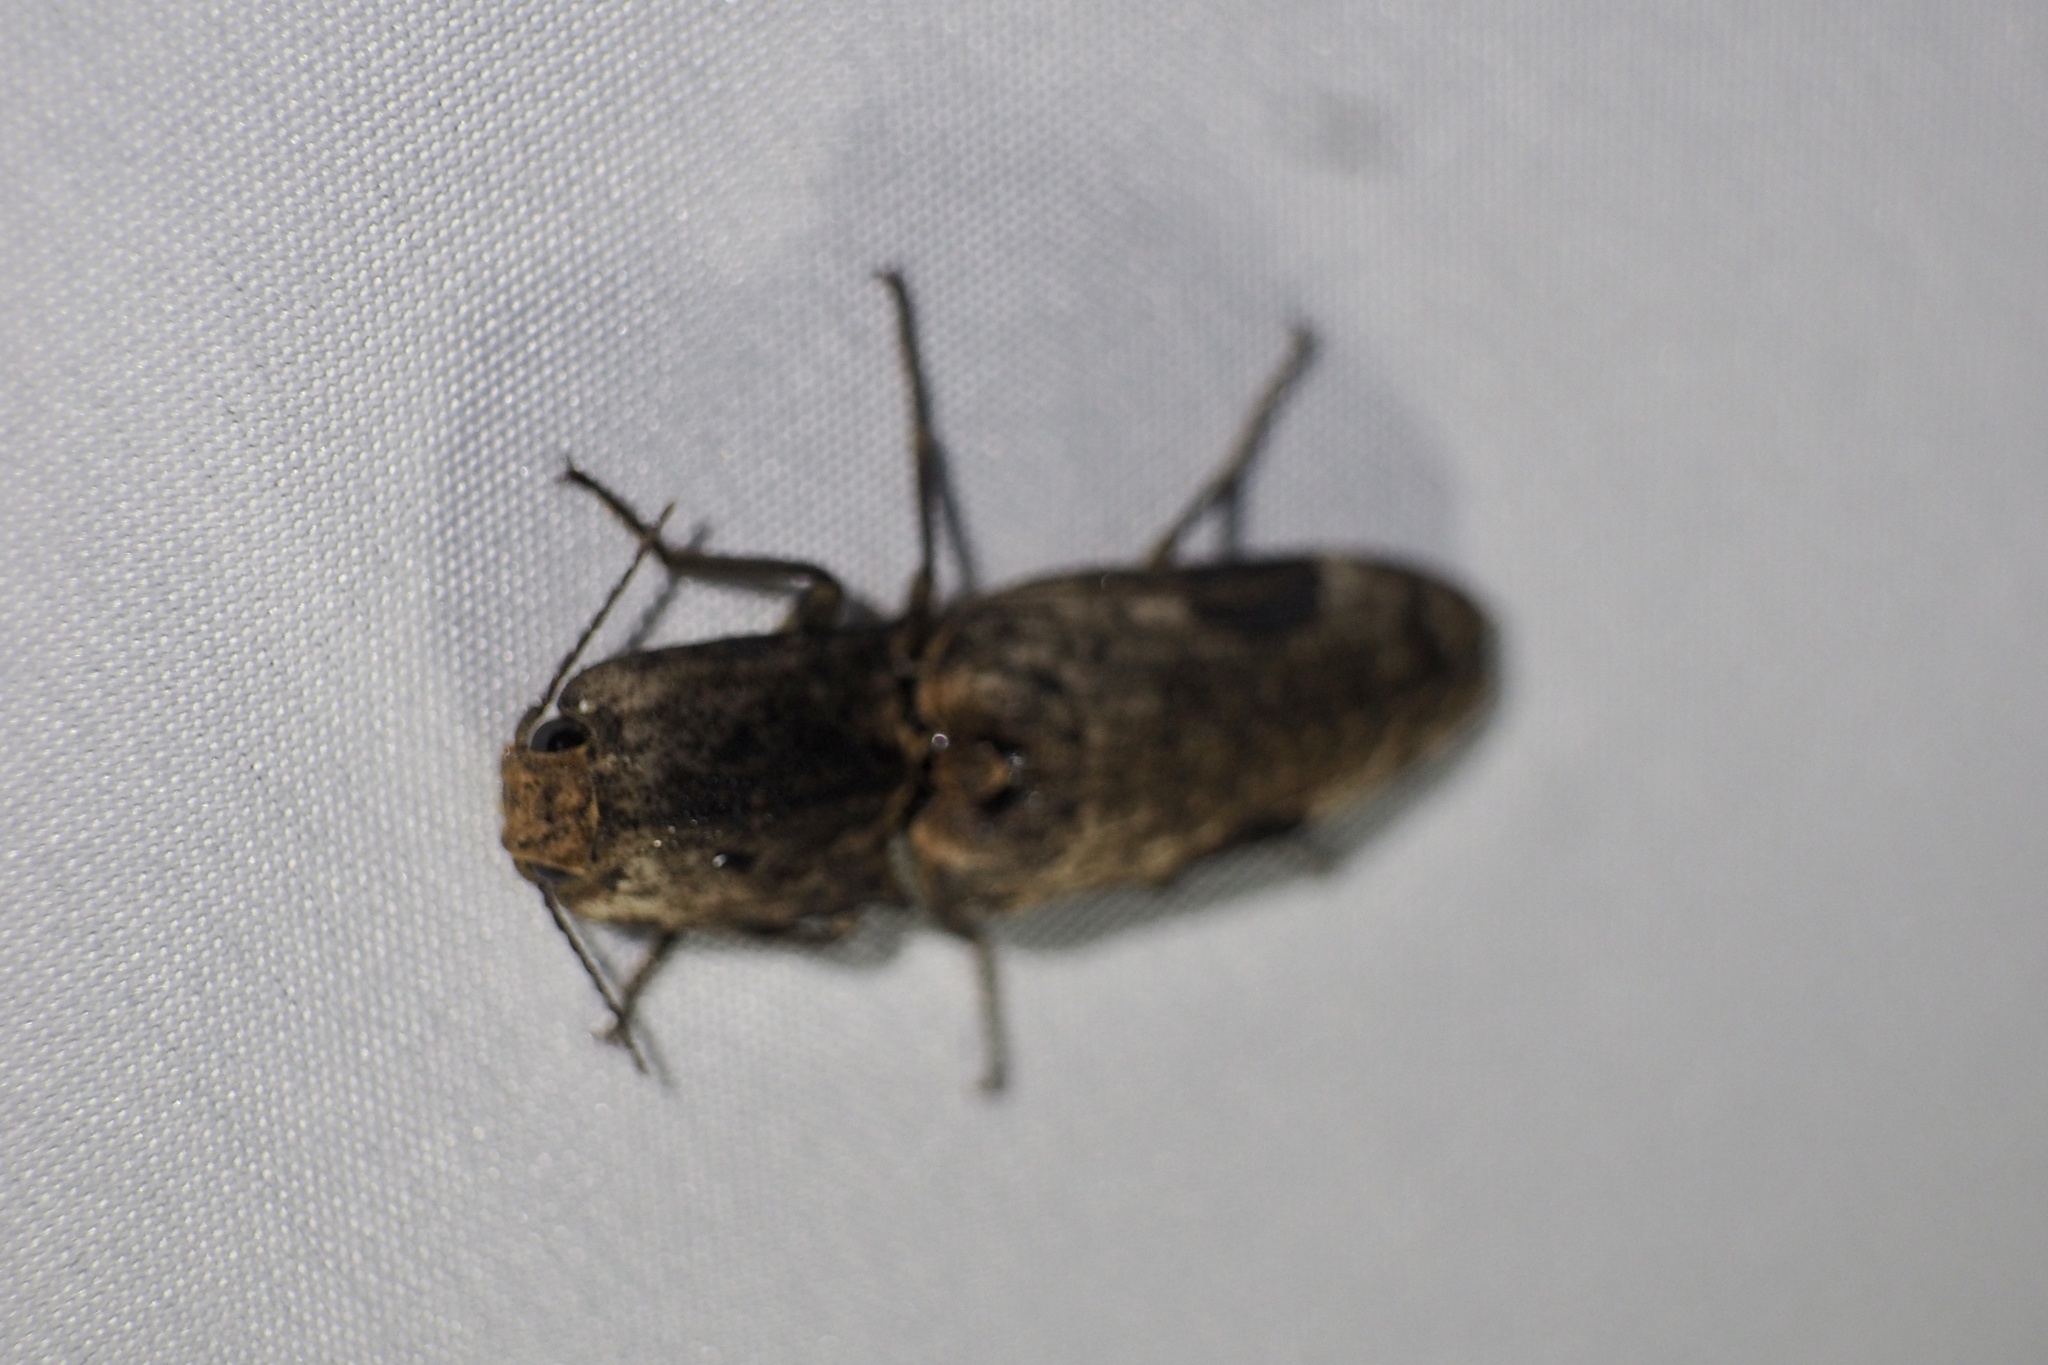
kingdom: Animalia
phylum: Arthropoda
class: Insecta
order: Coleoptera
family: Elateridae
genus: Cryptalaus
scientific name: Cryptalaus larvatus
